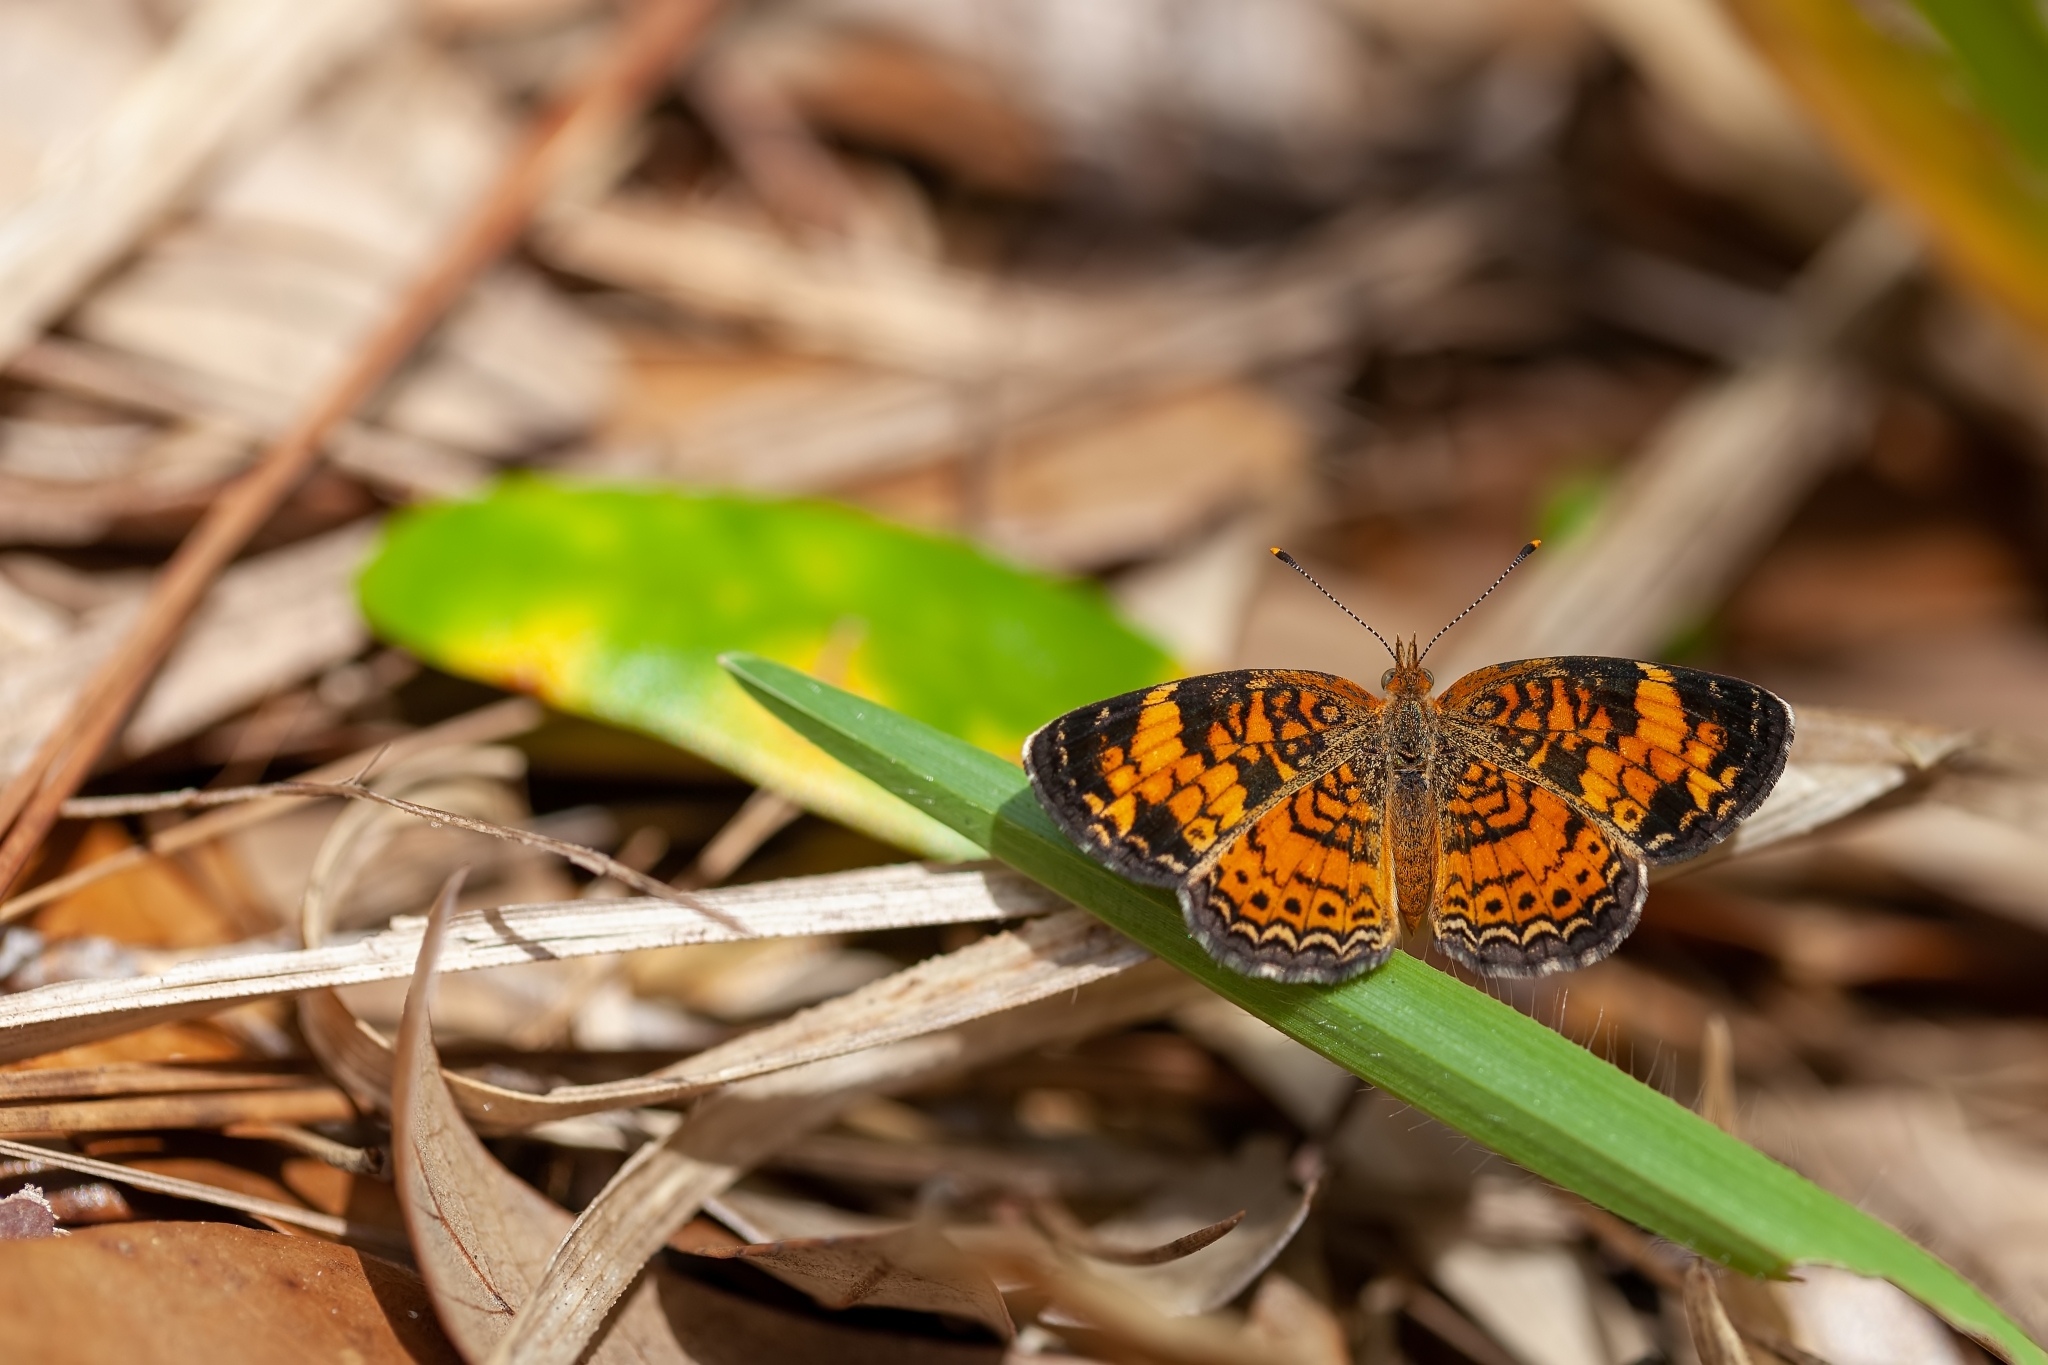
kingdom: Animalia
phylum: Arthropoda
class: Insecta
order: Lepidoptera
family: Nymphalidae
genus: Phyciodes
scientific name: Phyciodes tharos
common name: Pearl crescent
